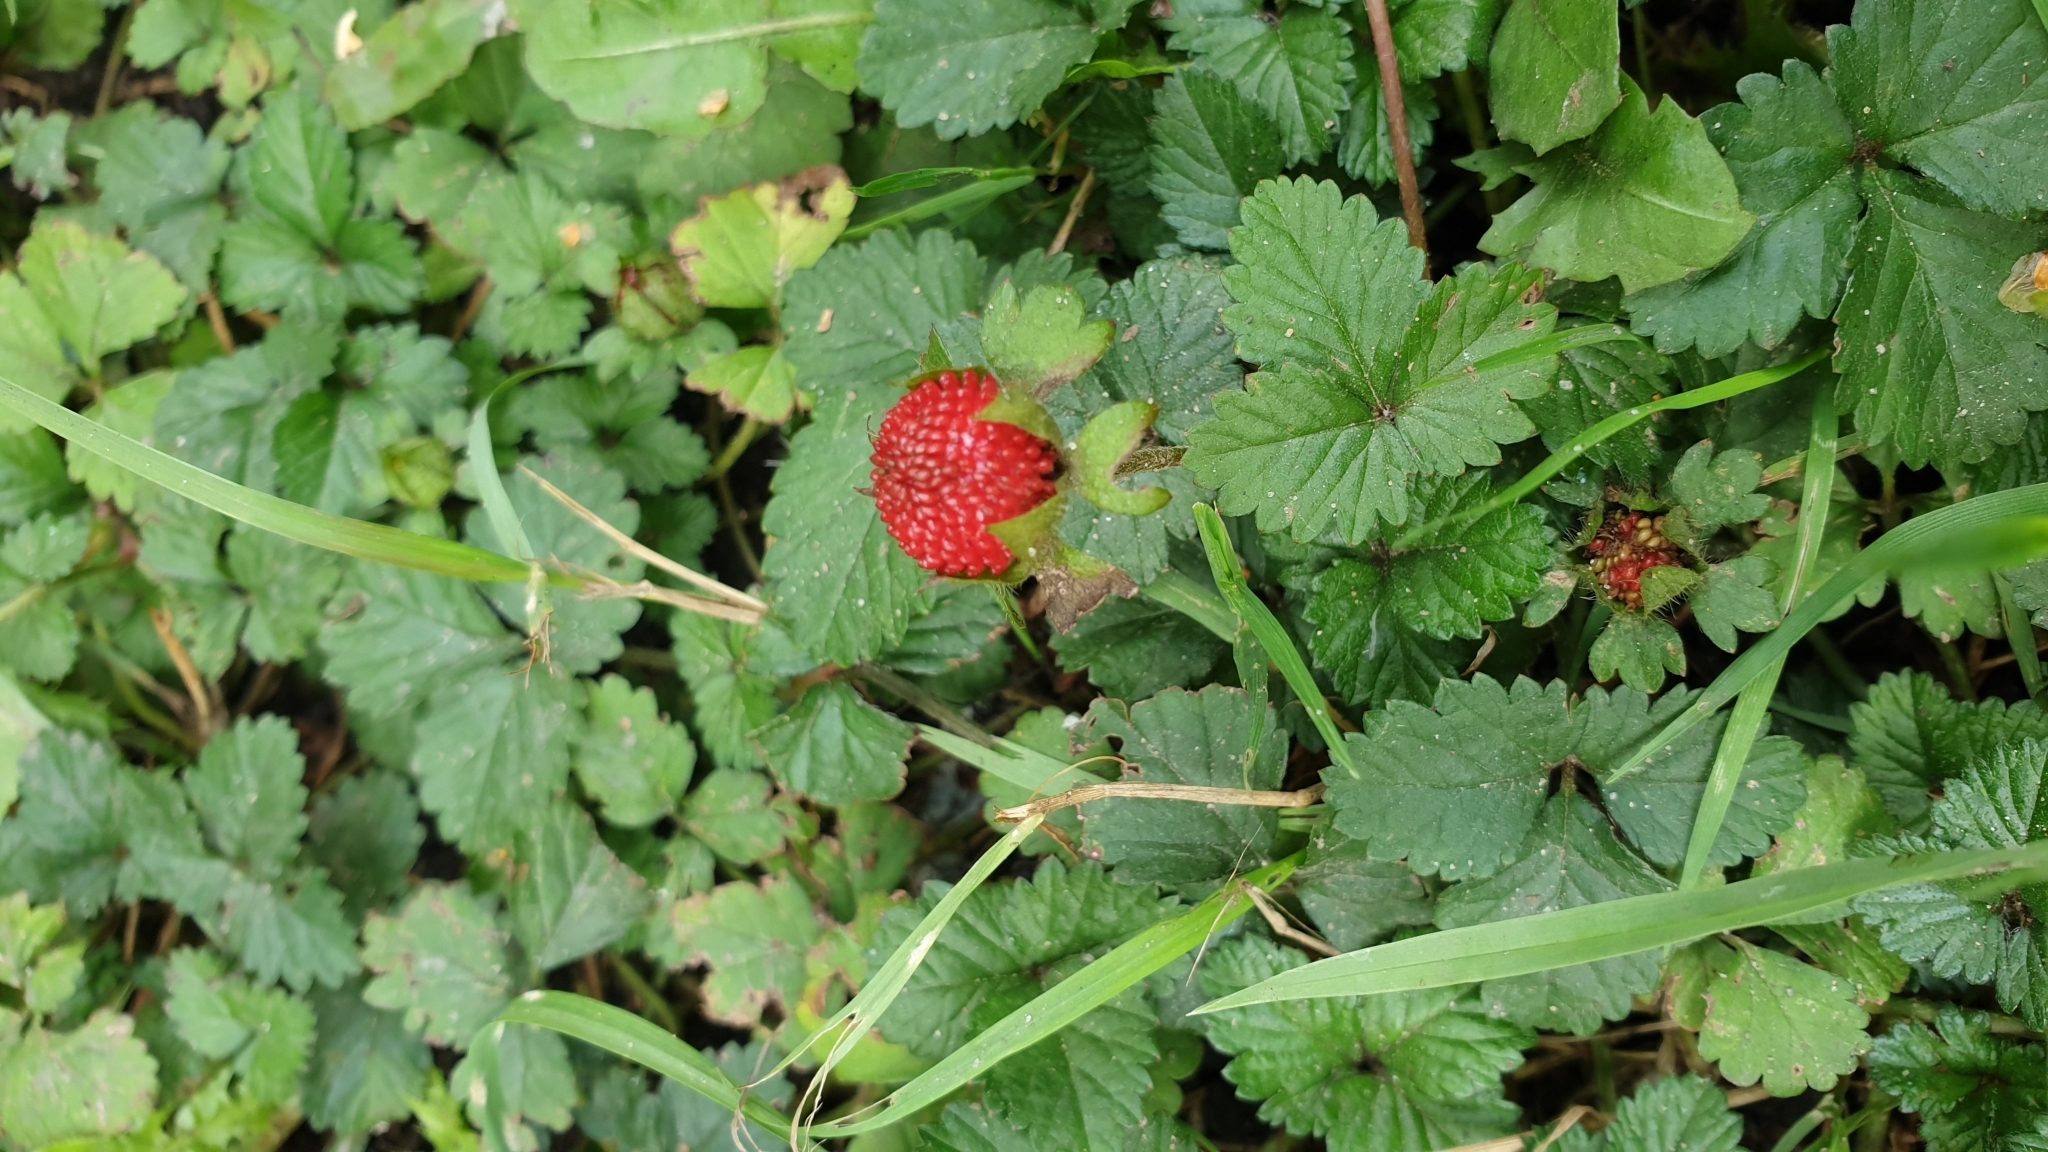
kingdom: Plantae
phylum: Tracheophyta
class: Magnoliopsida
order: Rosales
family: Rosaceae
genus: Potentilla
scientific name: Potentilla indica
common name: Yellow-flowered strawberry
